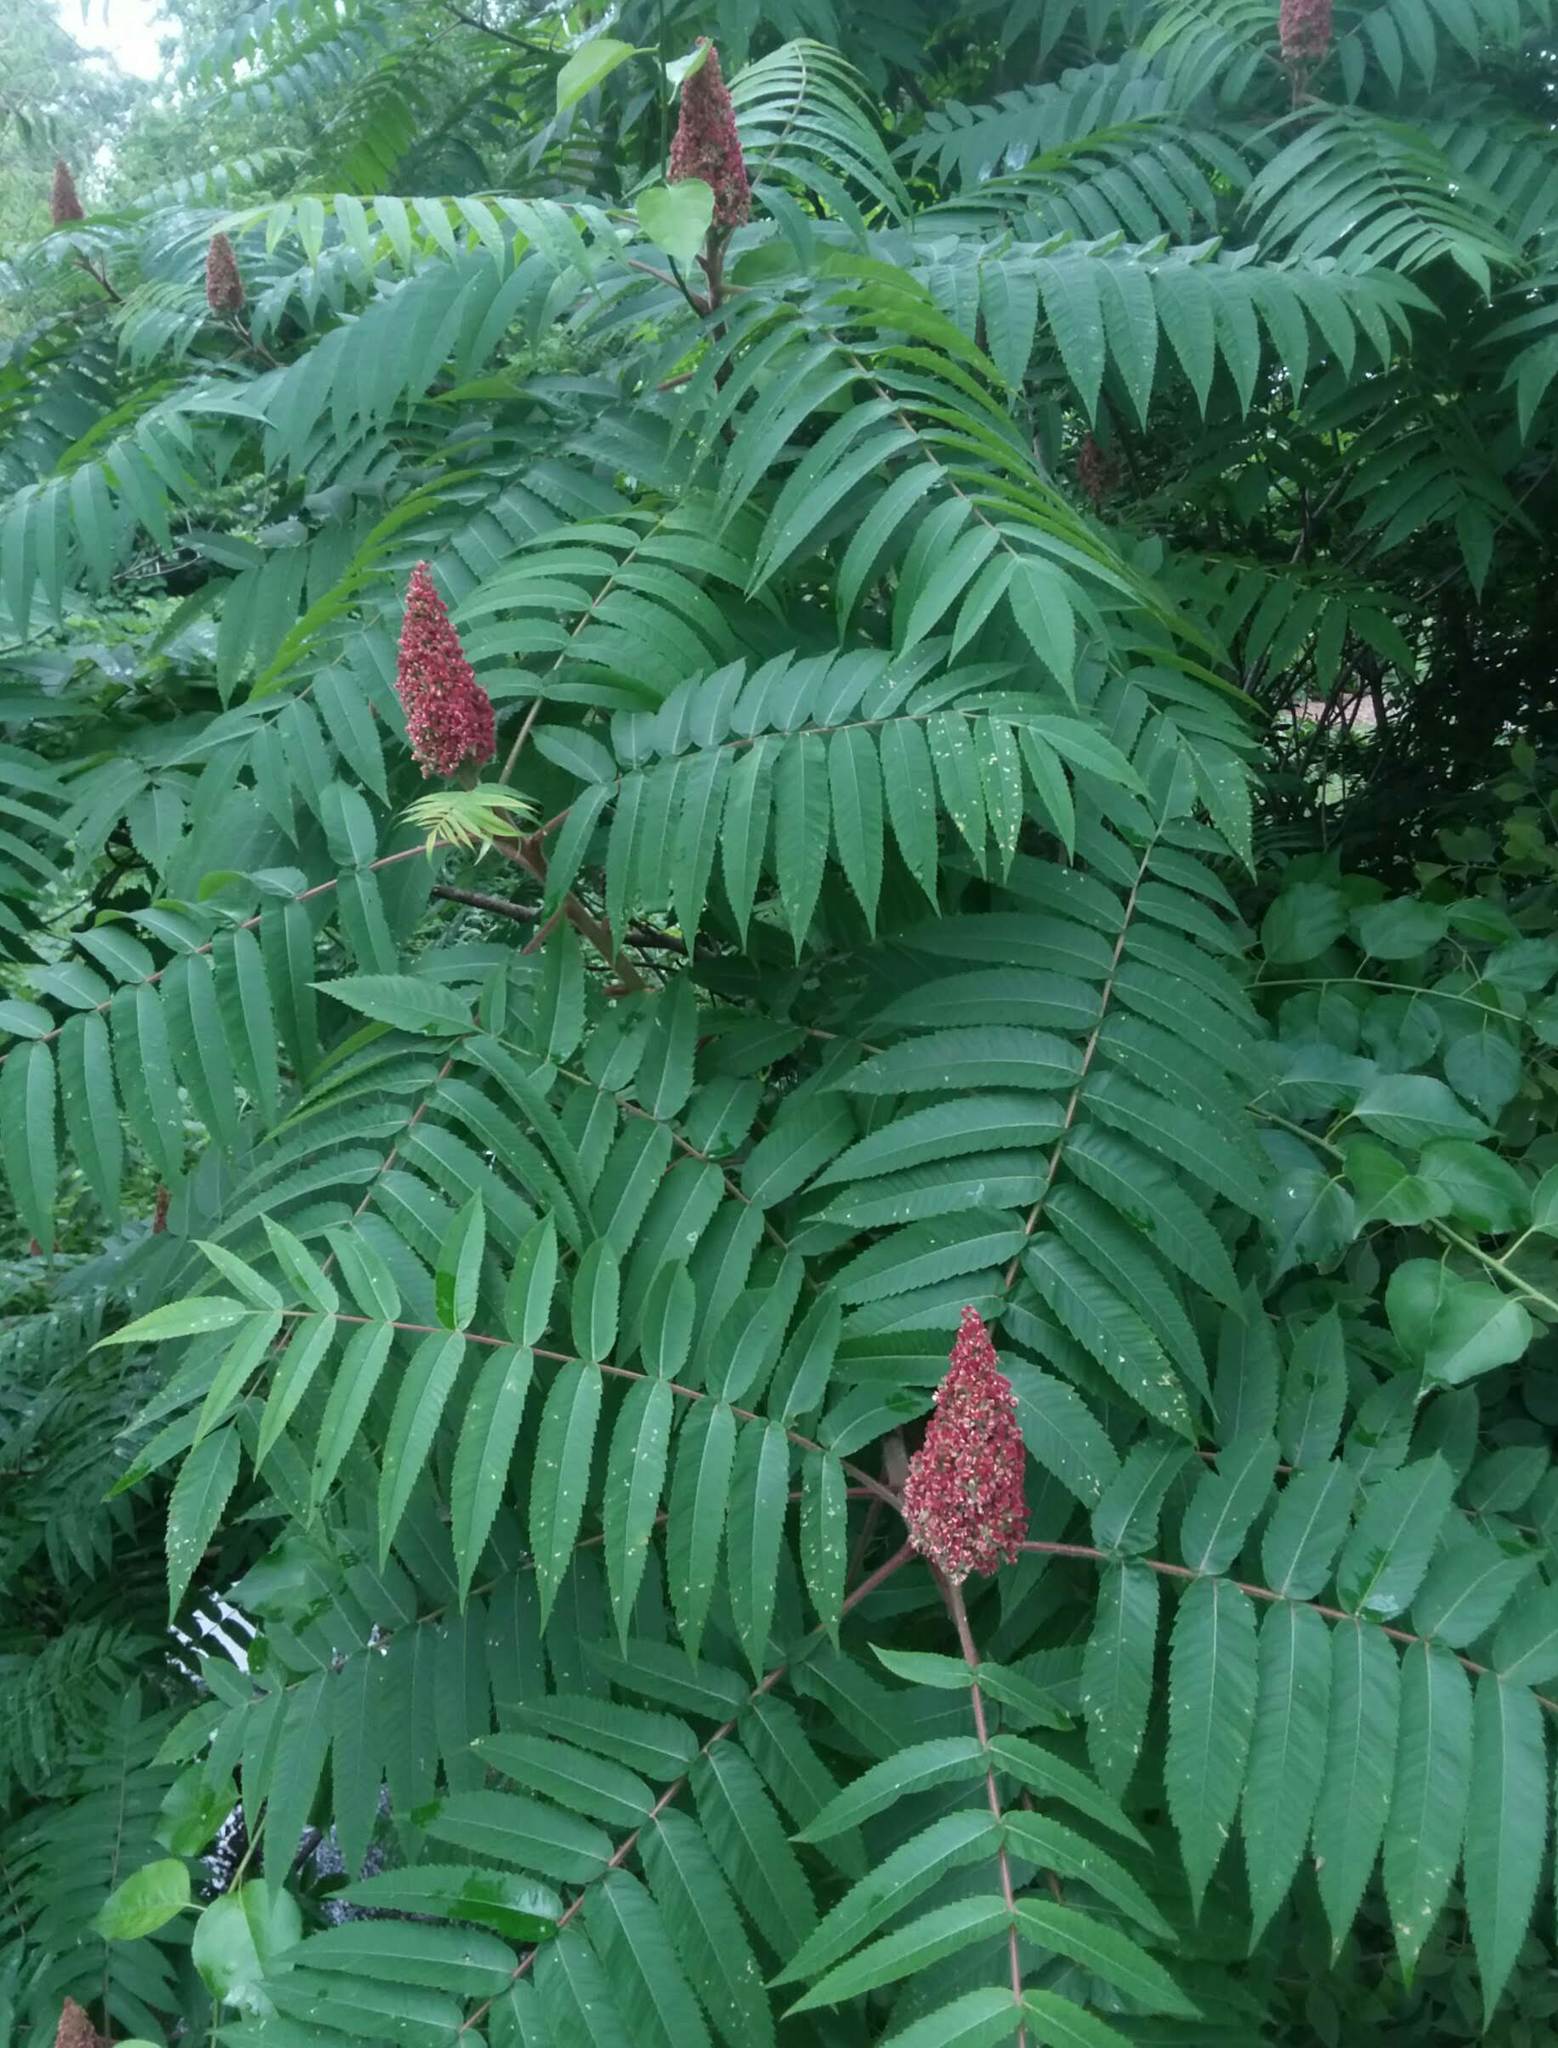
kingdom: Plantae
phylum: Tracheophyta
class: Magnoliopsida
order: Sapindales
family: Anacardiaceae
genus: Rhus
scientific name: Rhus typhina
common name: Staghorn sumac
